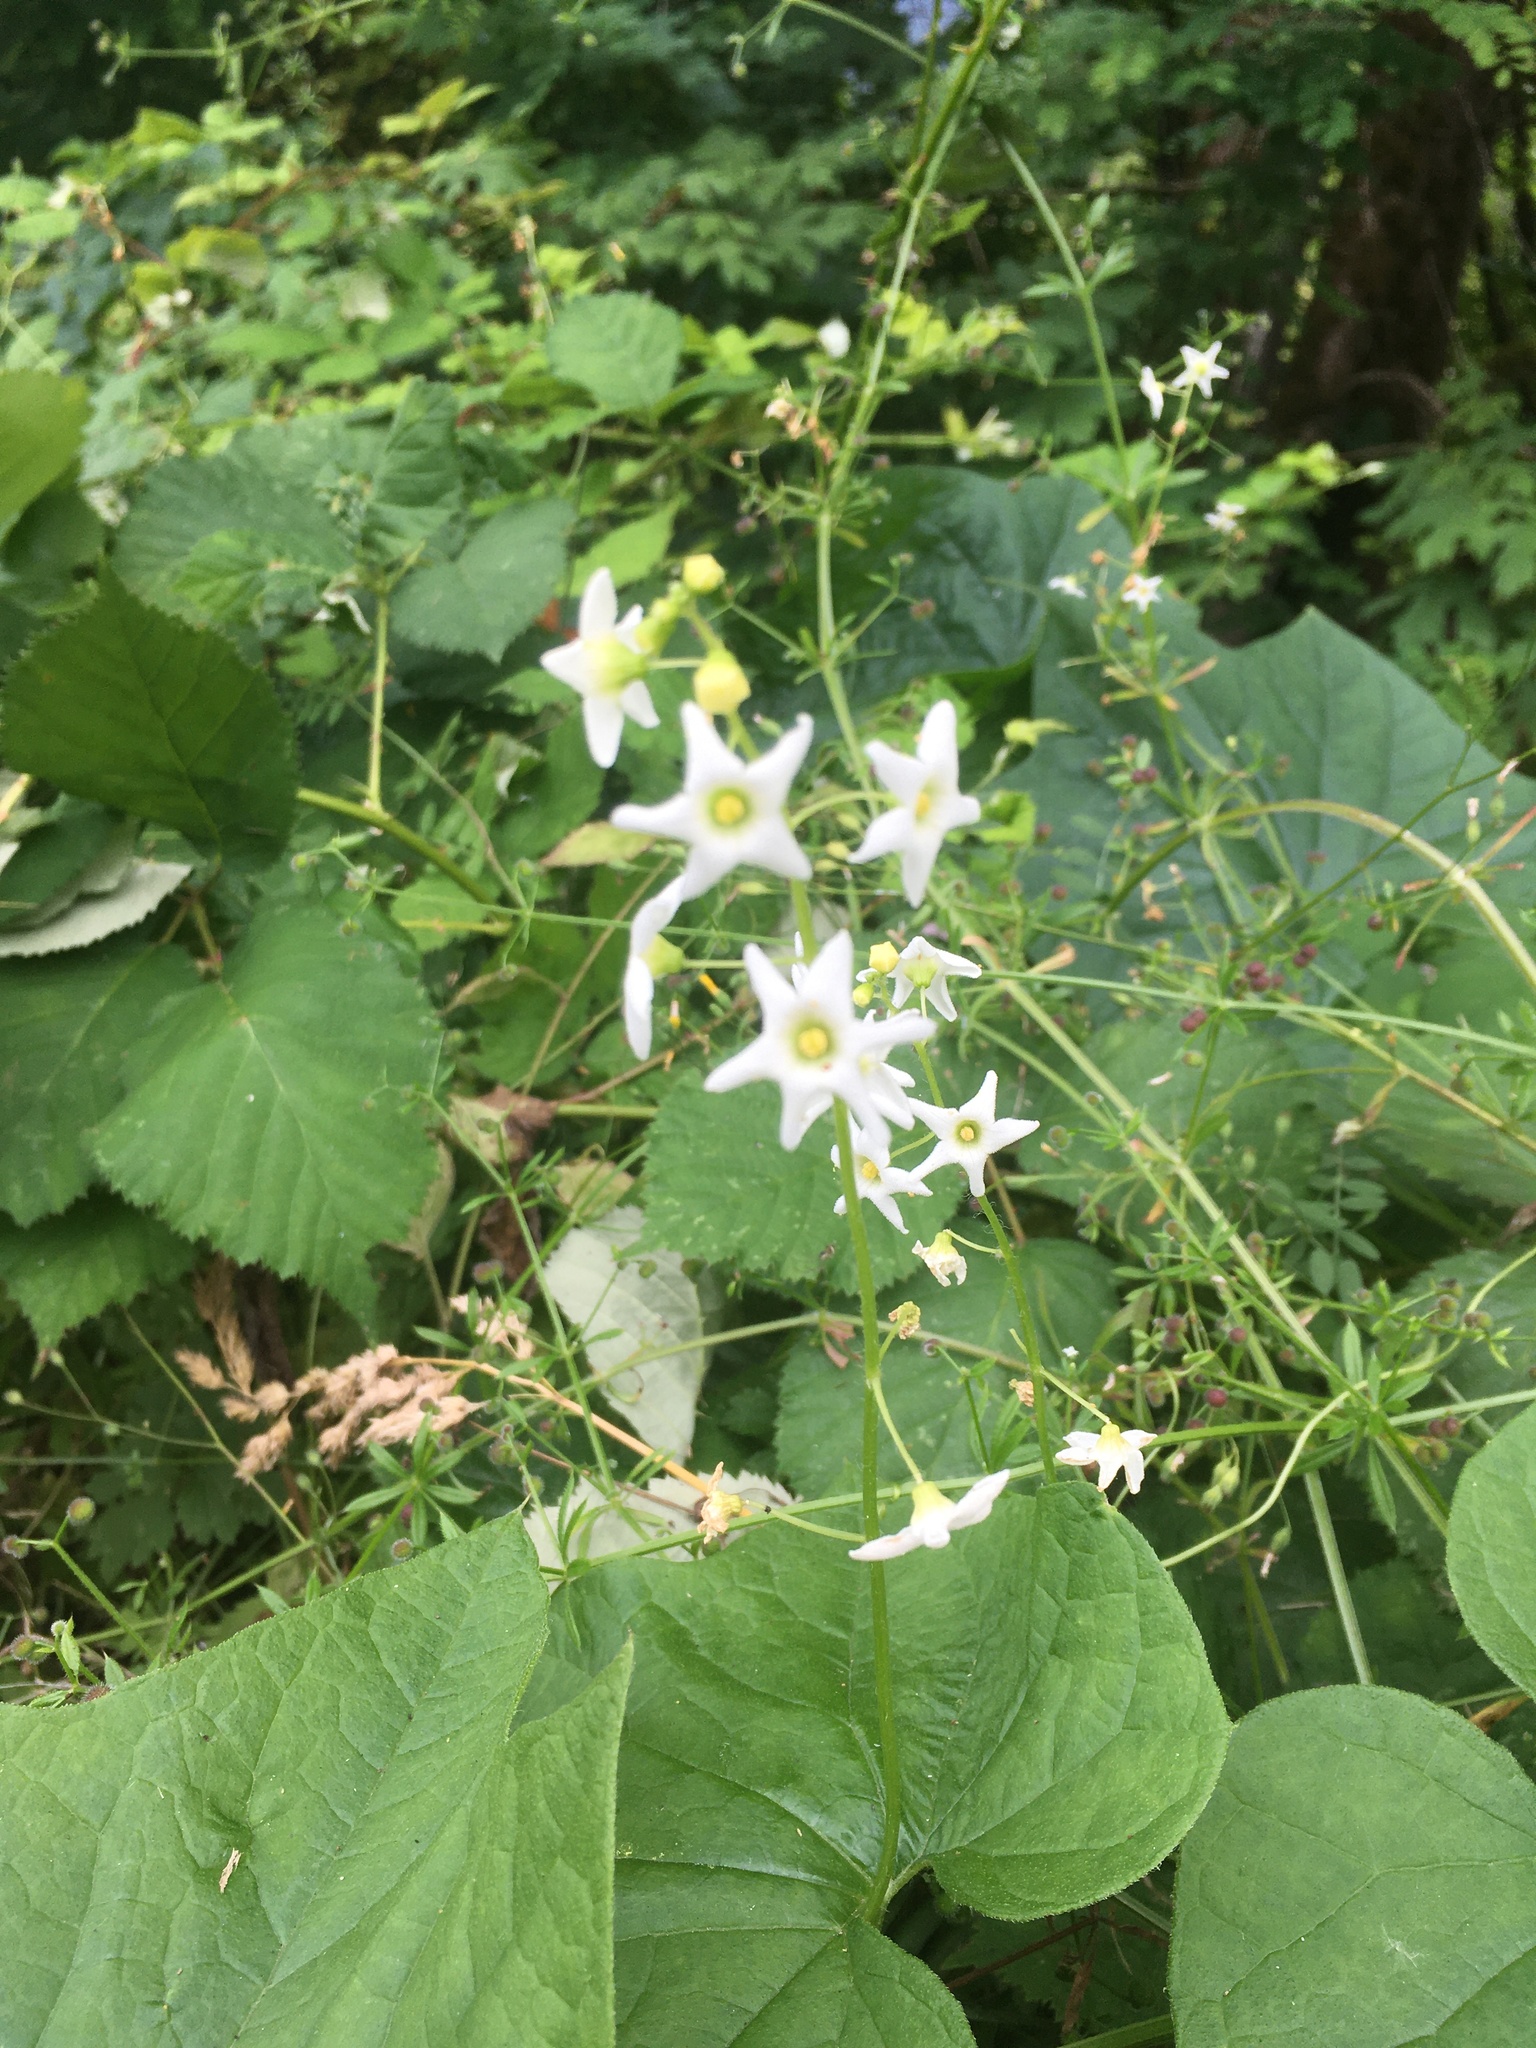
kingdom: Plantae
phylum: Tracheophyta
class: Magnoliopsida
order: Cucurbitales
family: Cucurbitaceae
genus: Marah
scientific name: Marah oregana
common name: Coastal manroot
